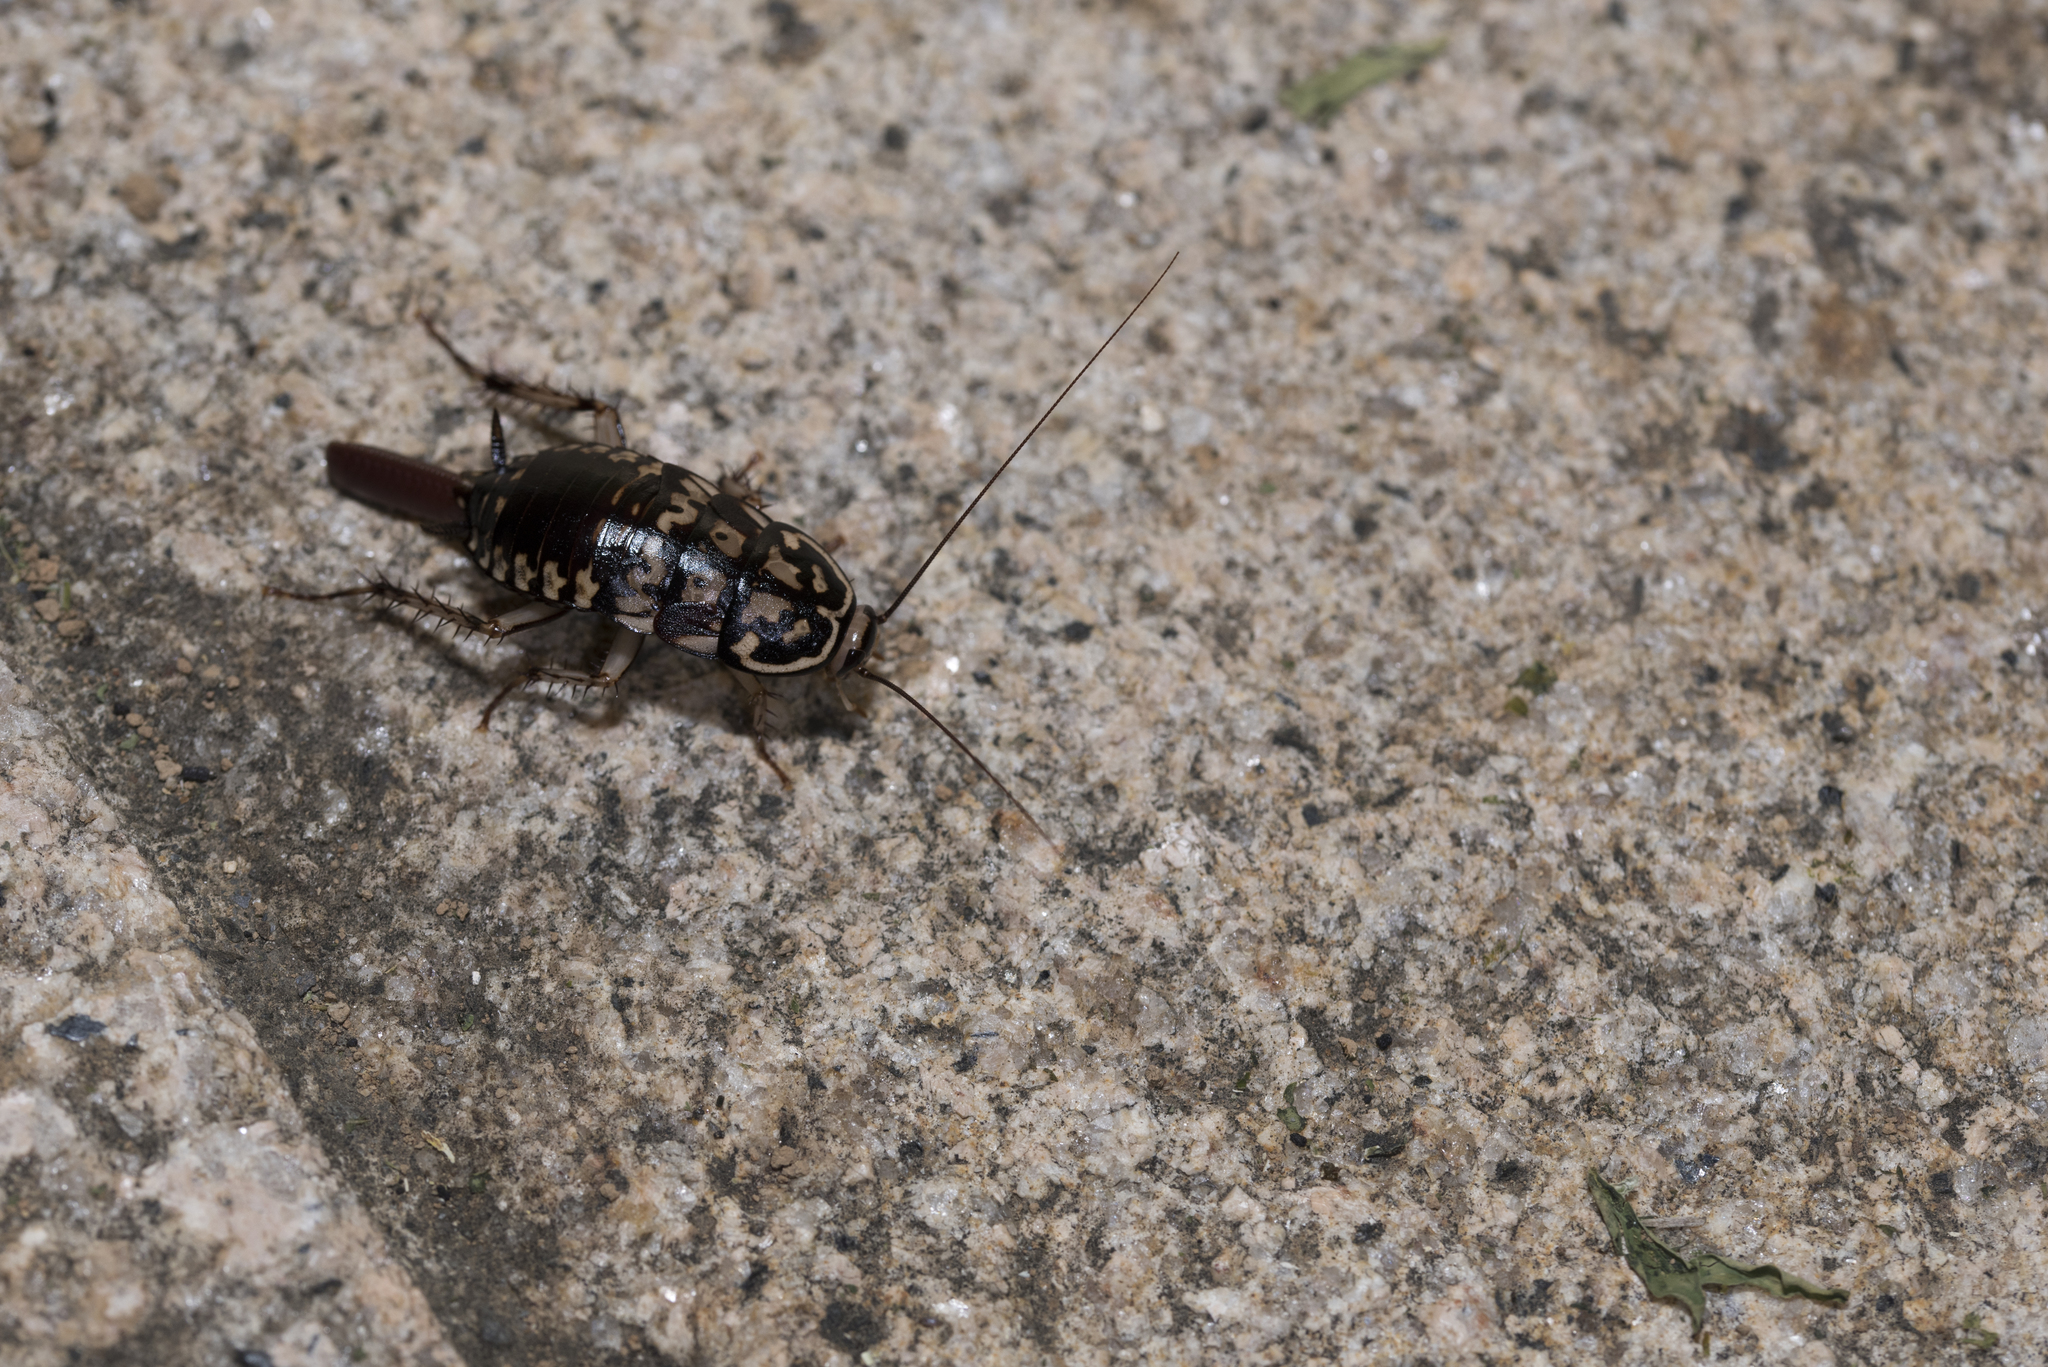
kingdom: Animalia
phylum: Arthropoda
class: Insecta
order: Blattodea
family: Blattidae
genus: Neostylopyga
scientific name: Neostylopyga rhombifolia
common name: Harlequin cockroach
